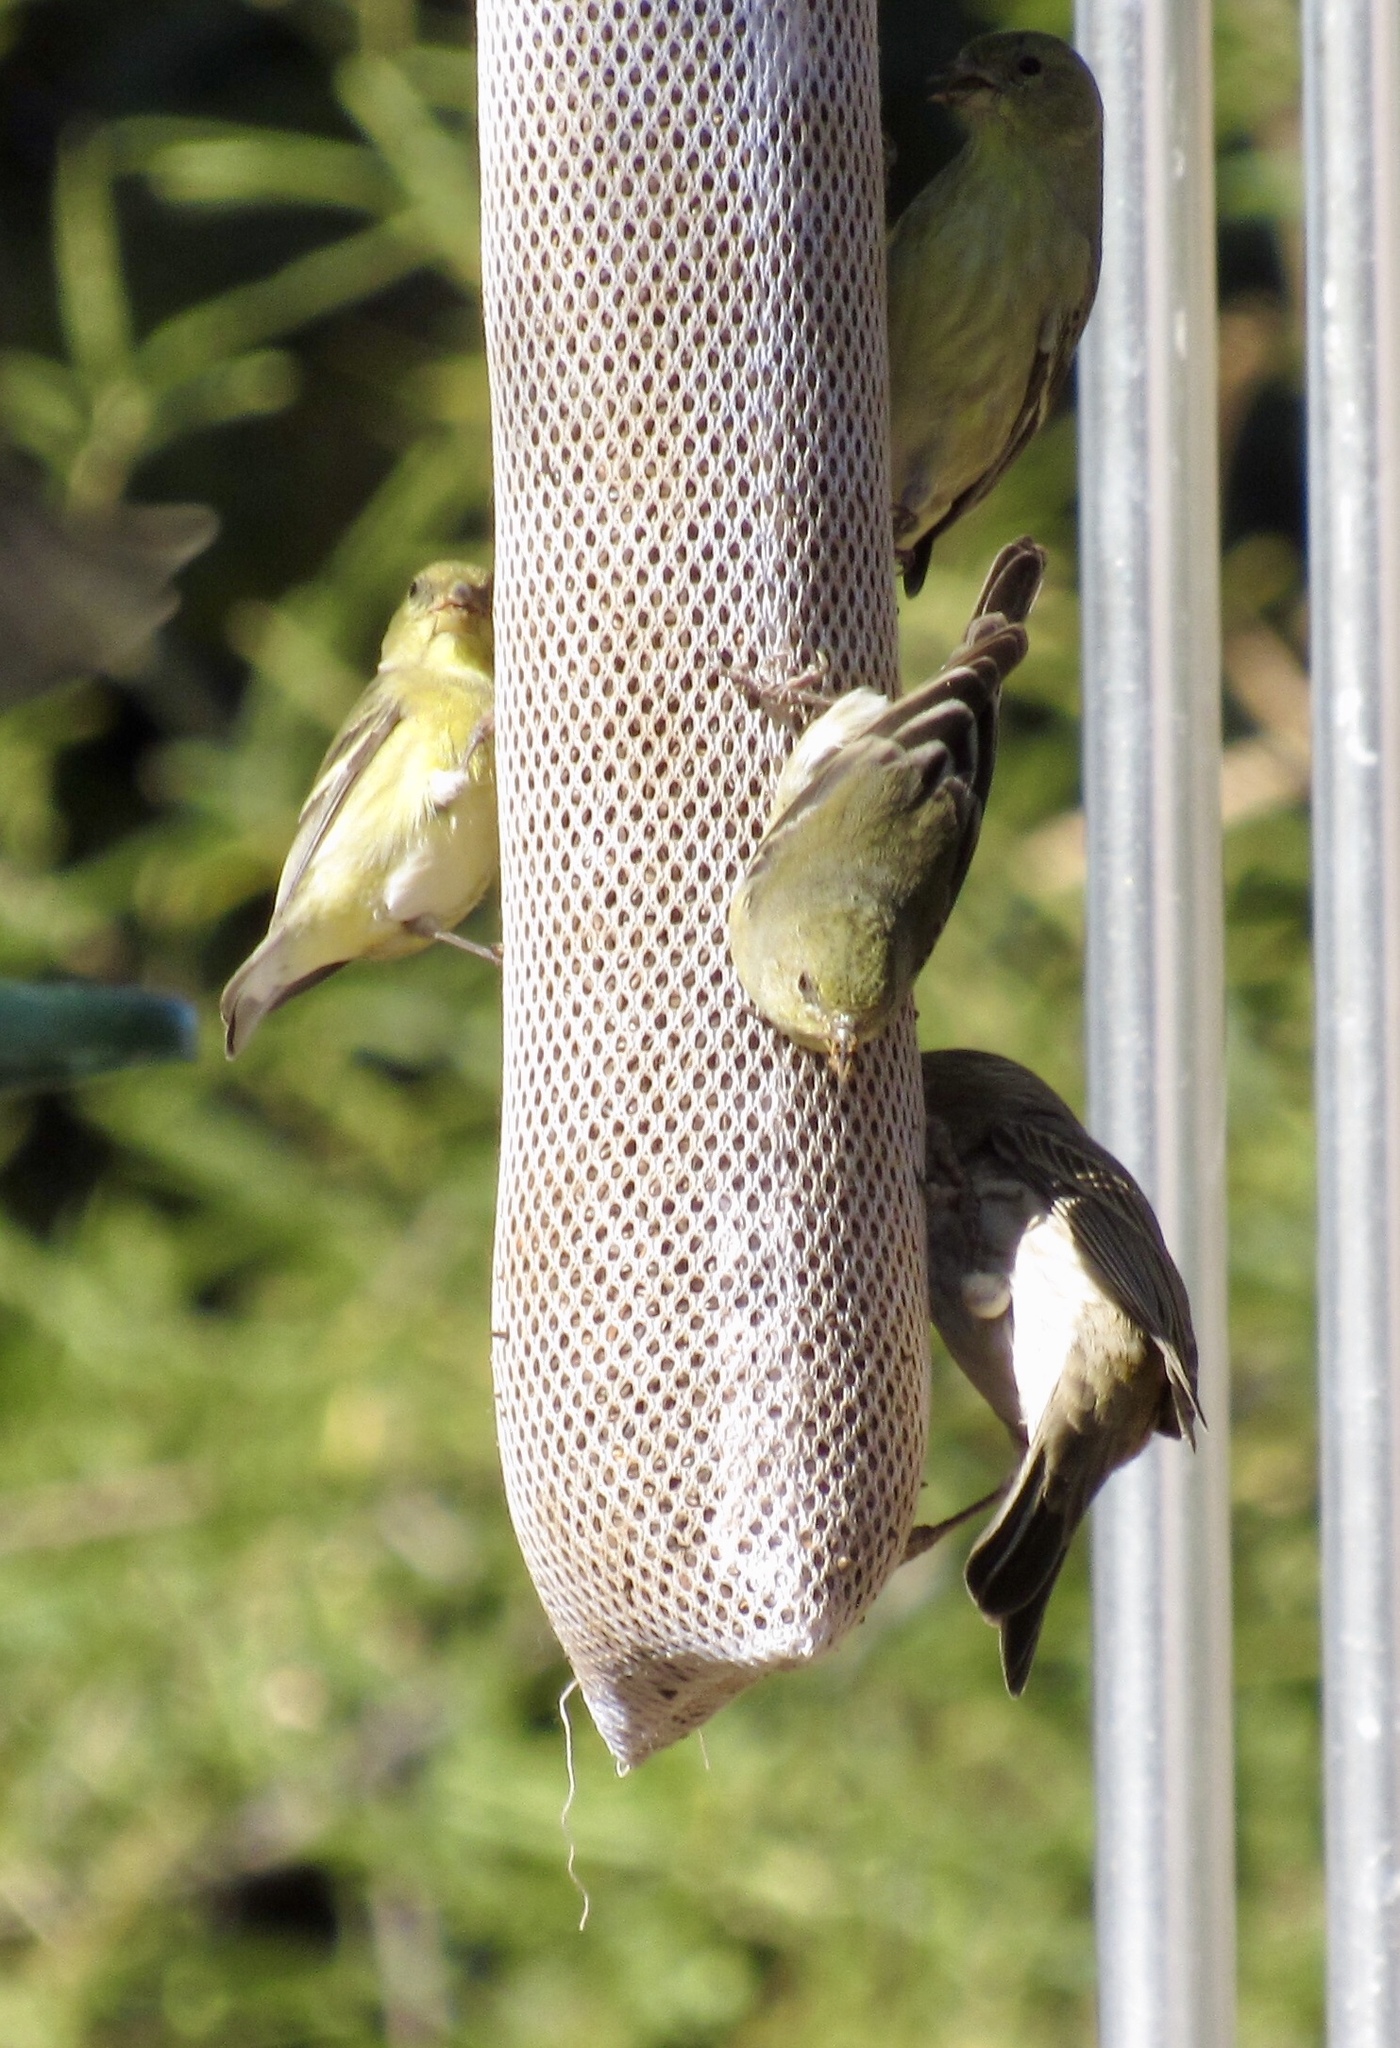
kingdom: Animalia
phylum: Chordata
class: Aves
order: Passeriformes
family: Fringillidae
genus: Spinus
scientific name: Spinus psaltria
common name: Lesser goldfinch
